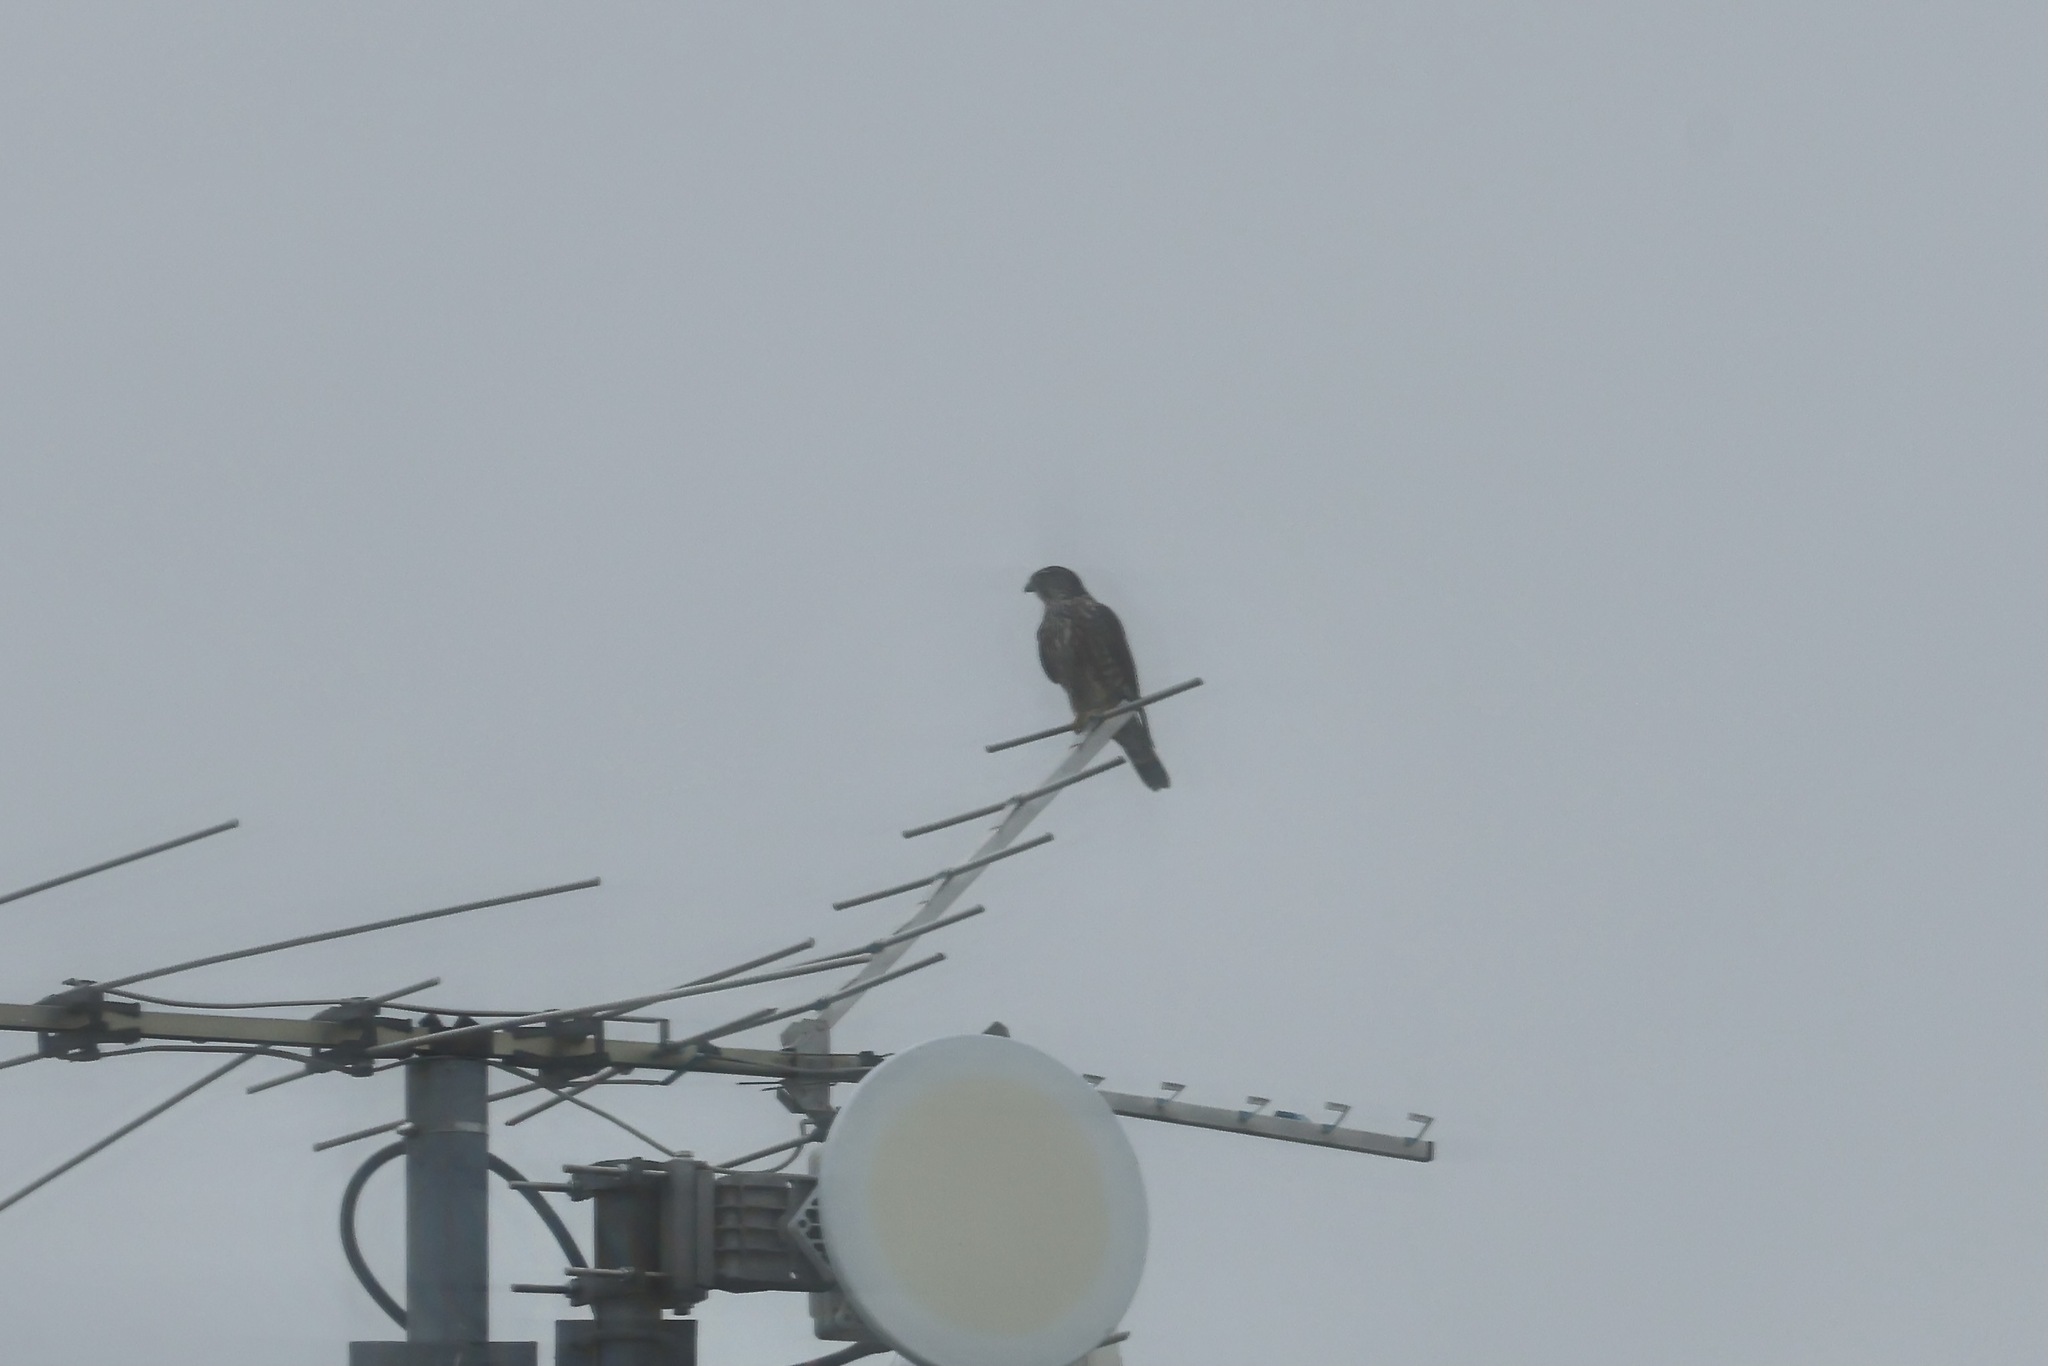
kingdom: Animalia
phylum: Chordata
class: Aves
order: Falconiformes
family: Falconidae
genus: Falco
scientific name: Falco columbarius
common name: Merlin
